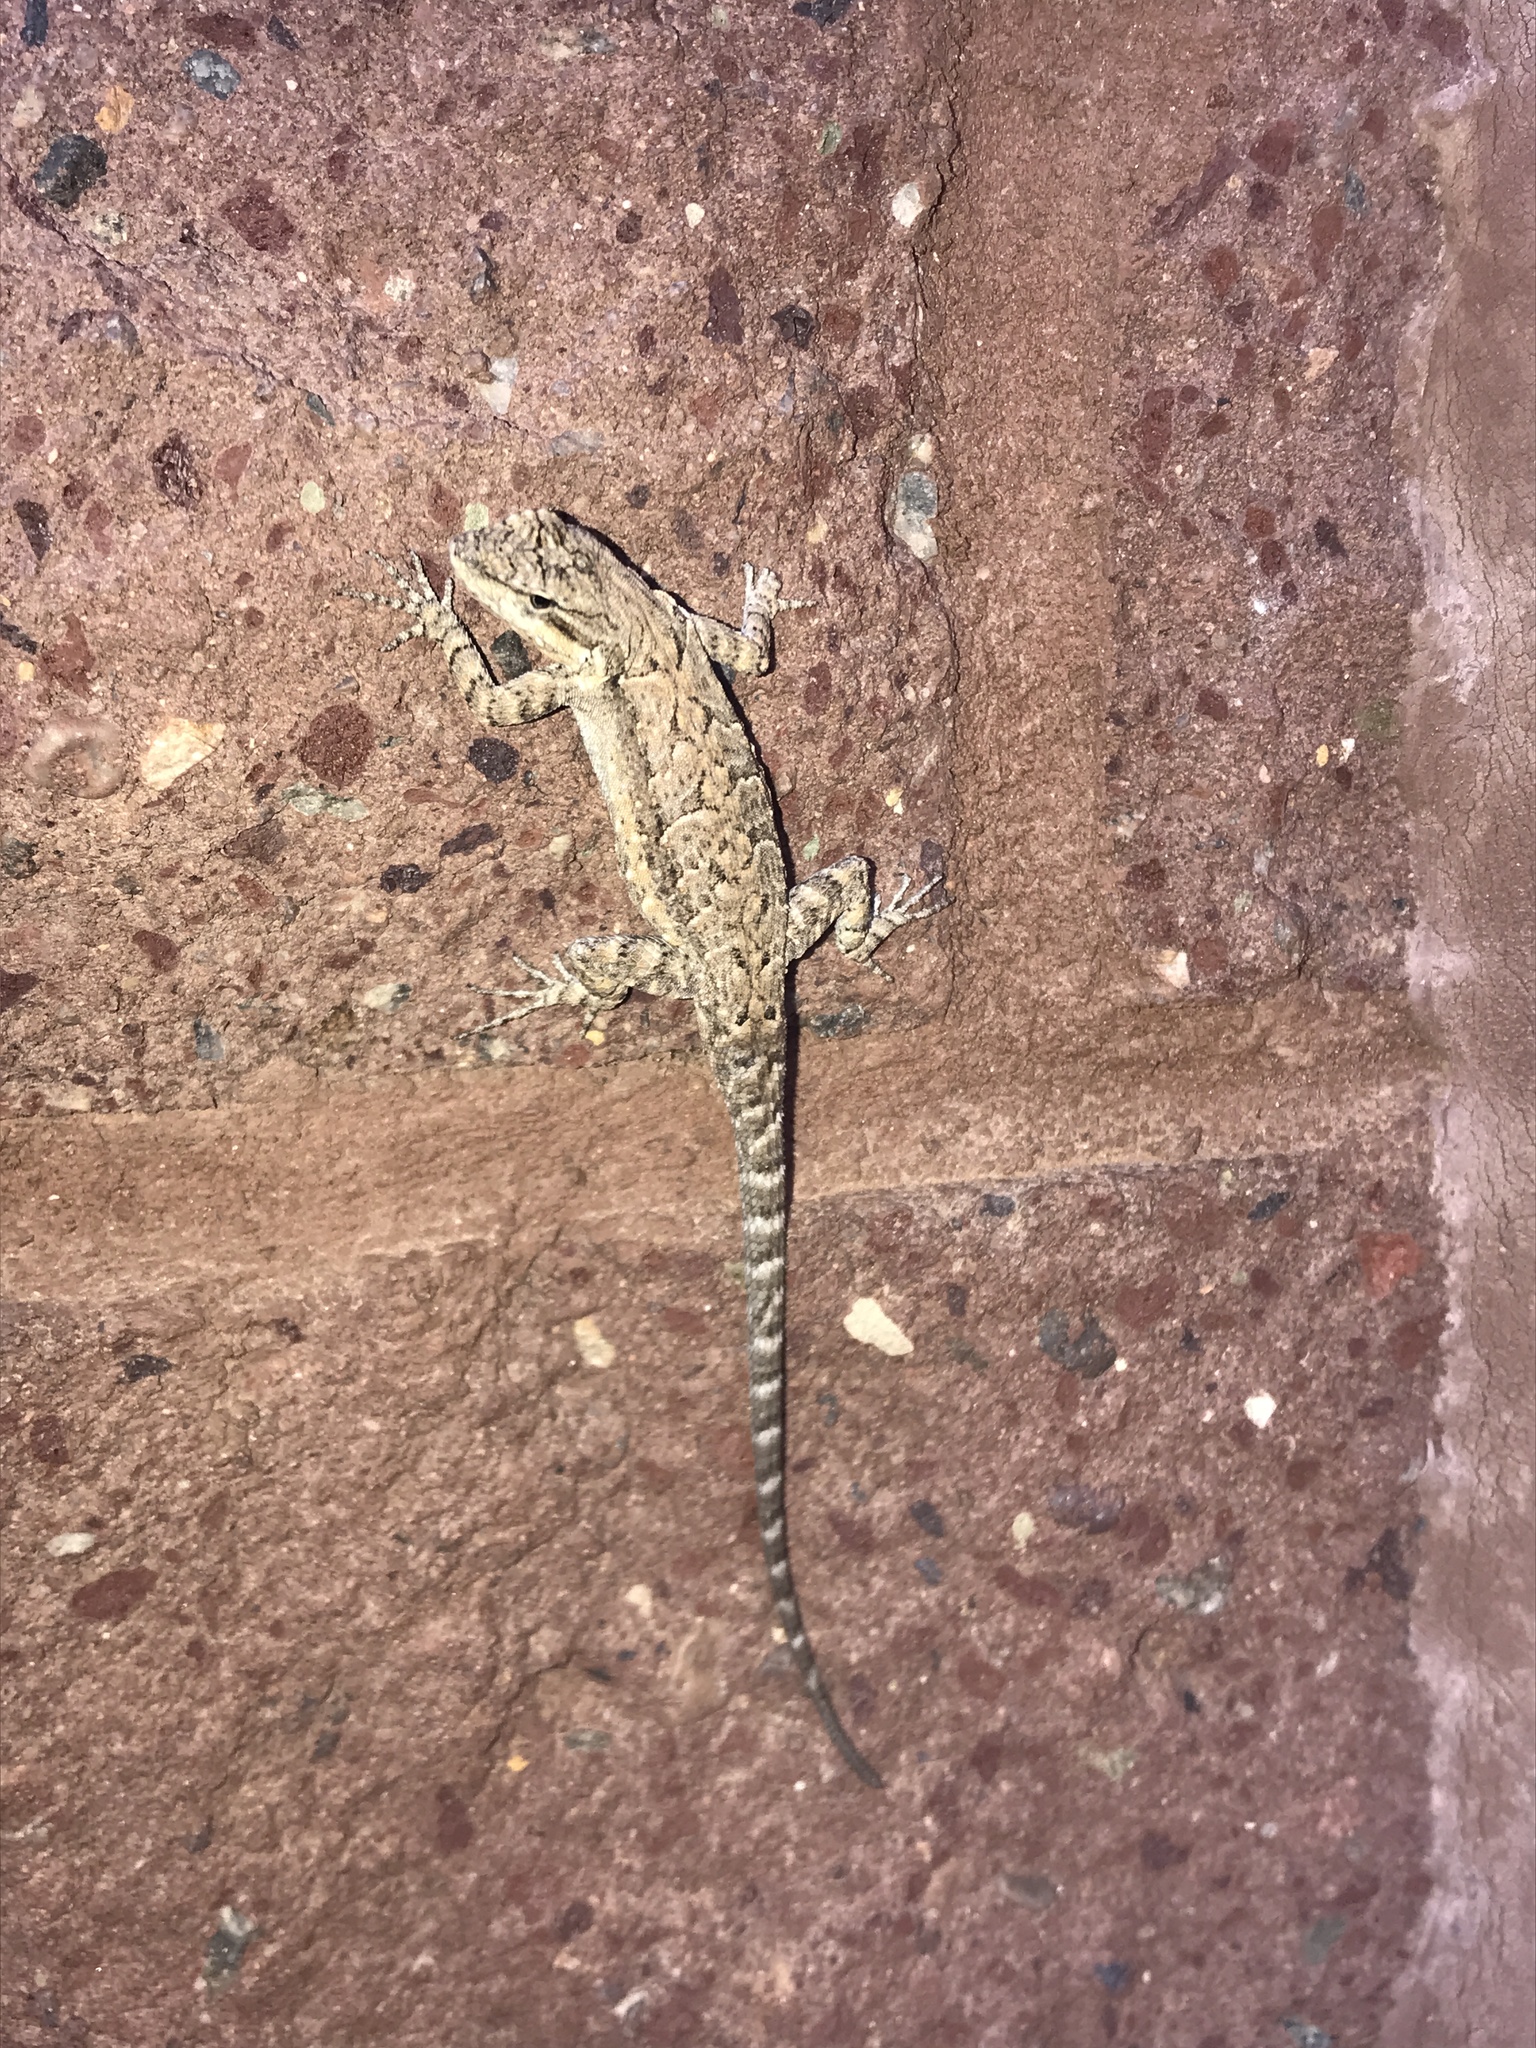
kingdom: Animalia
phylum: Chordata
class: Squamata
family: Phrynosomatidae
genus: Urosaurus
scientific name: Urosaurus ornatus
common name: Ornate tree lizard
